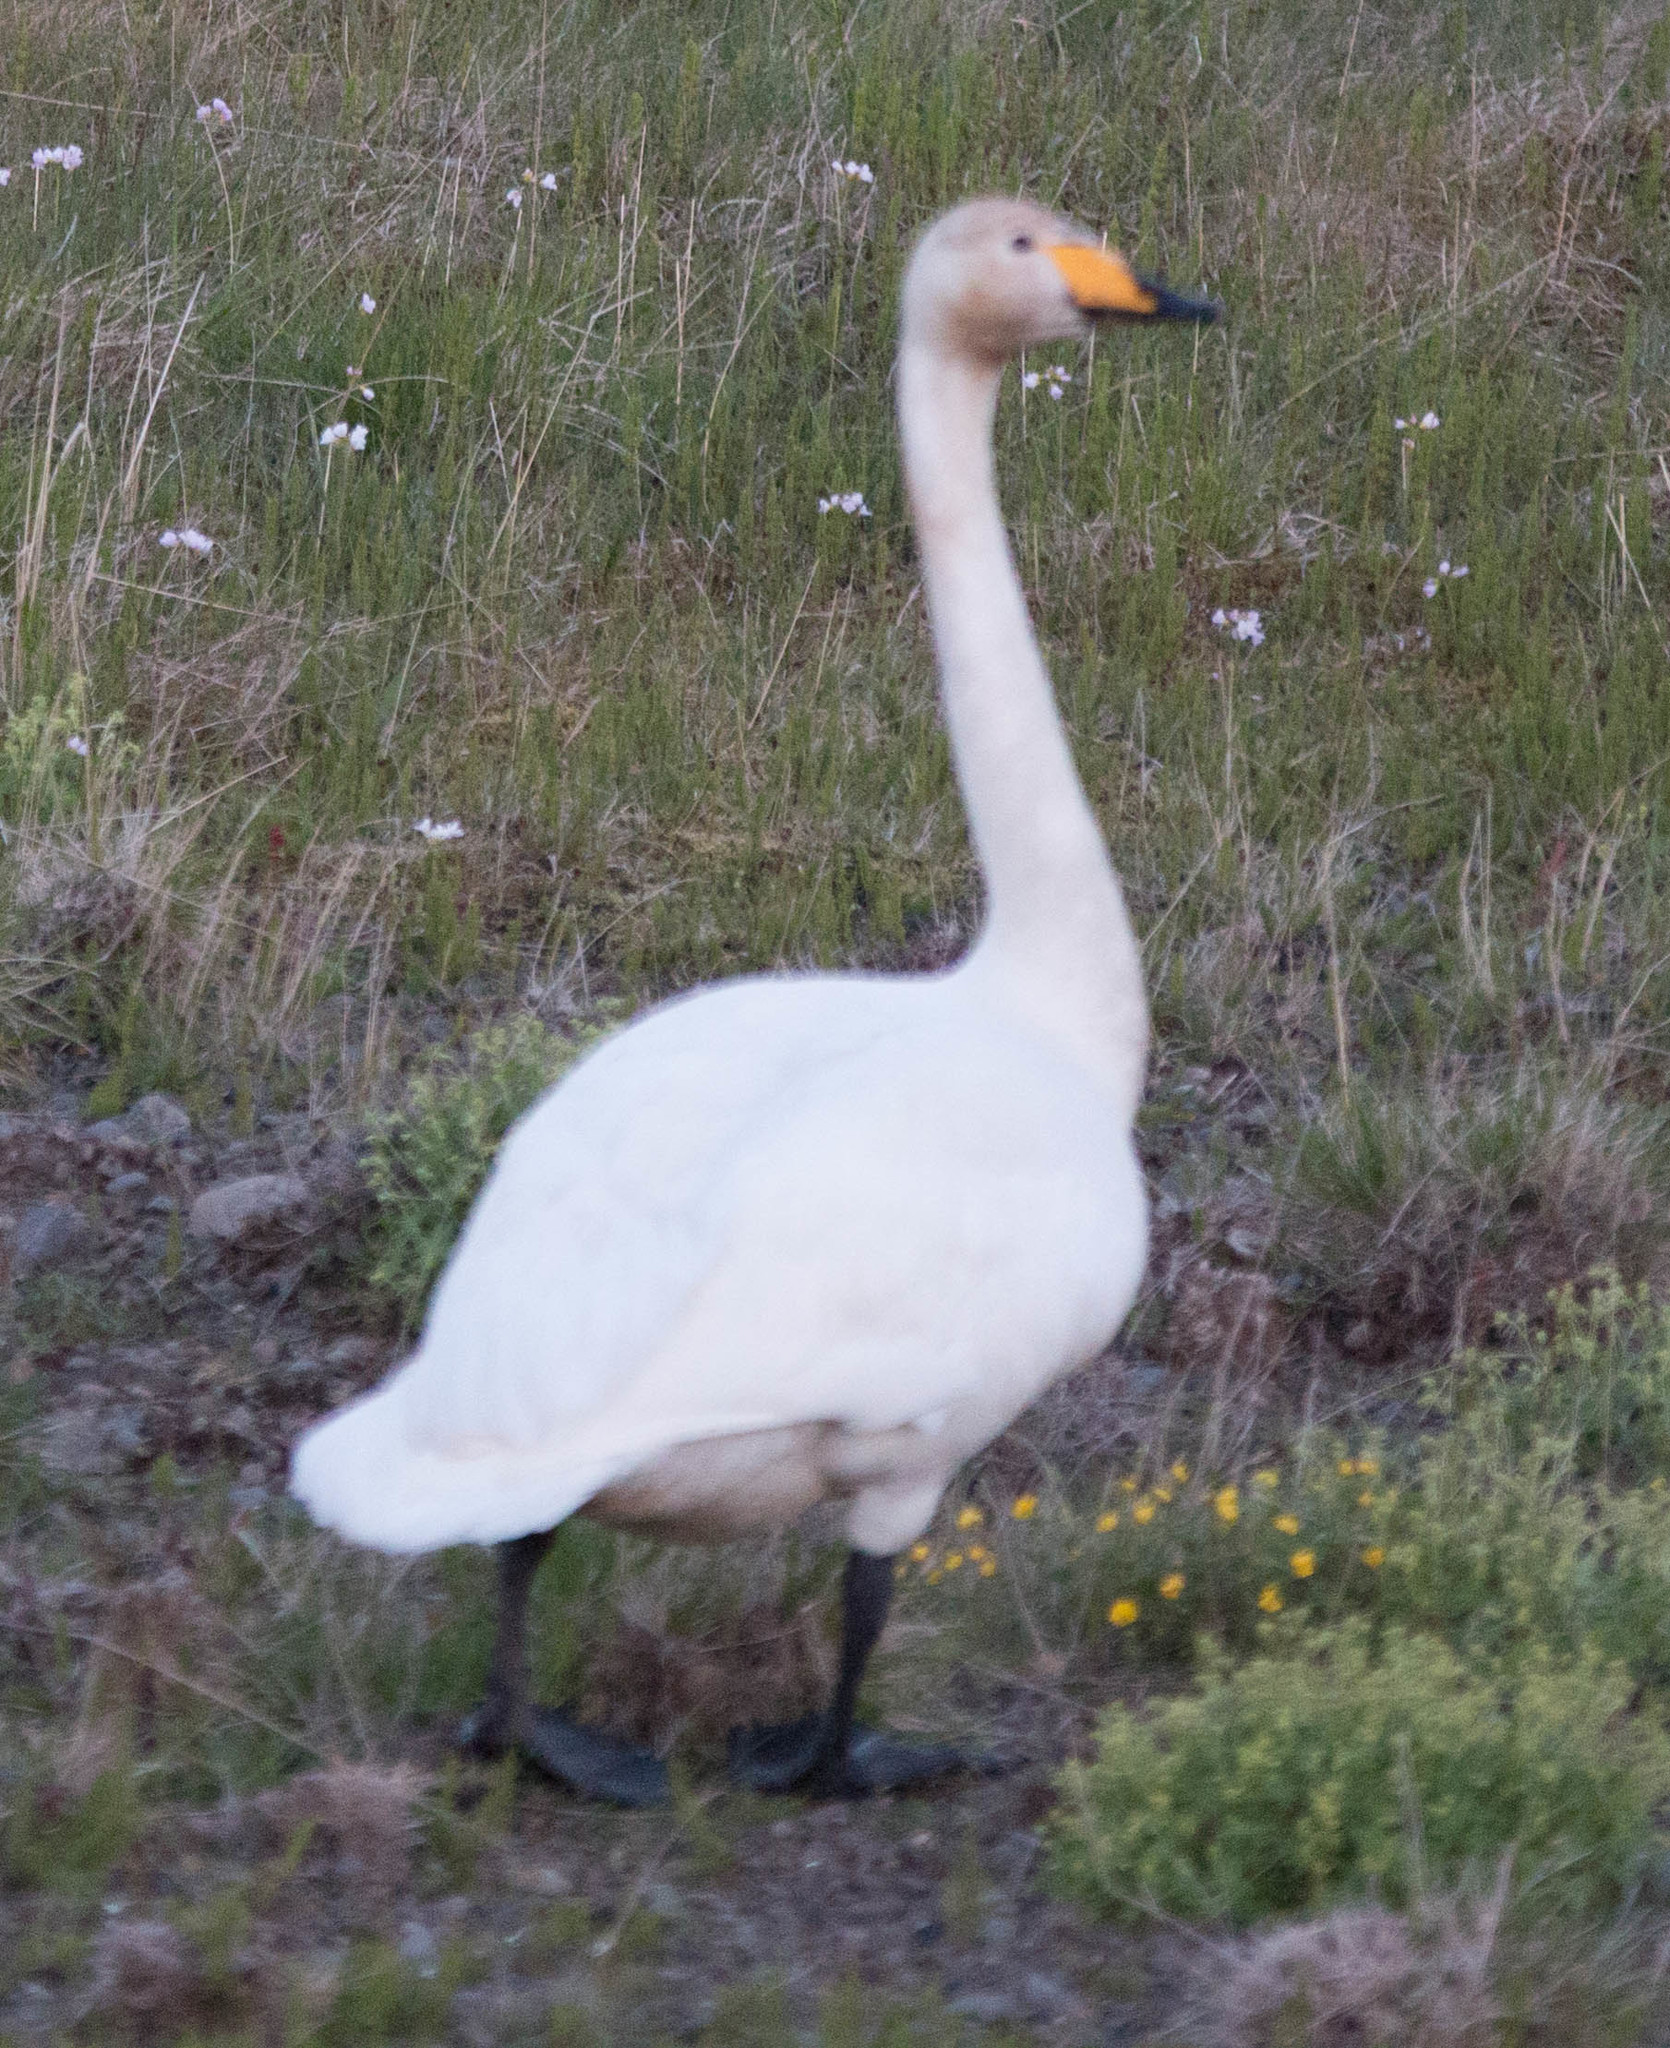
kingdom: Animalia
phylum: Chordata
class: Aves
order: Anseriformes
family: Anatidae
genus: Cygnus
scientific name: Cygnus cygnus
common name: Whooper swan
